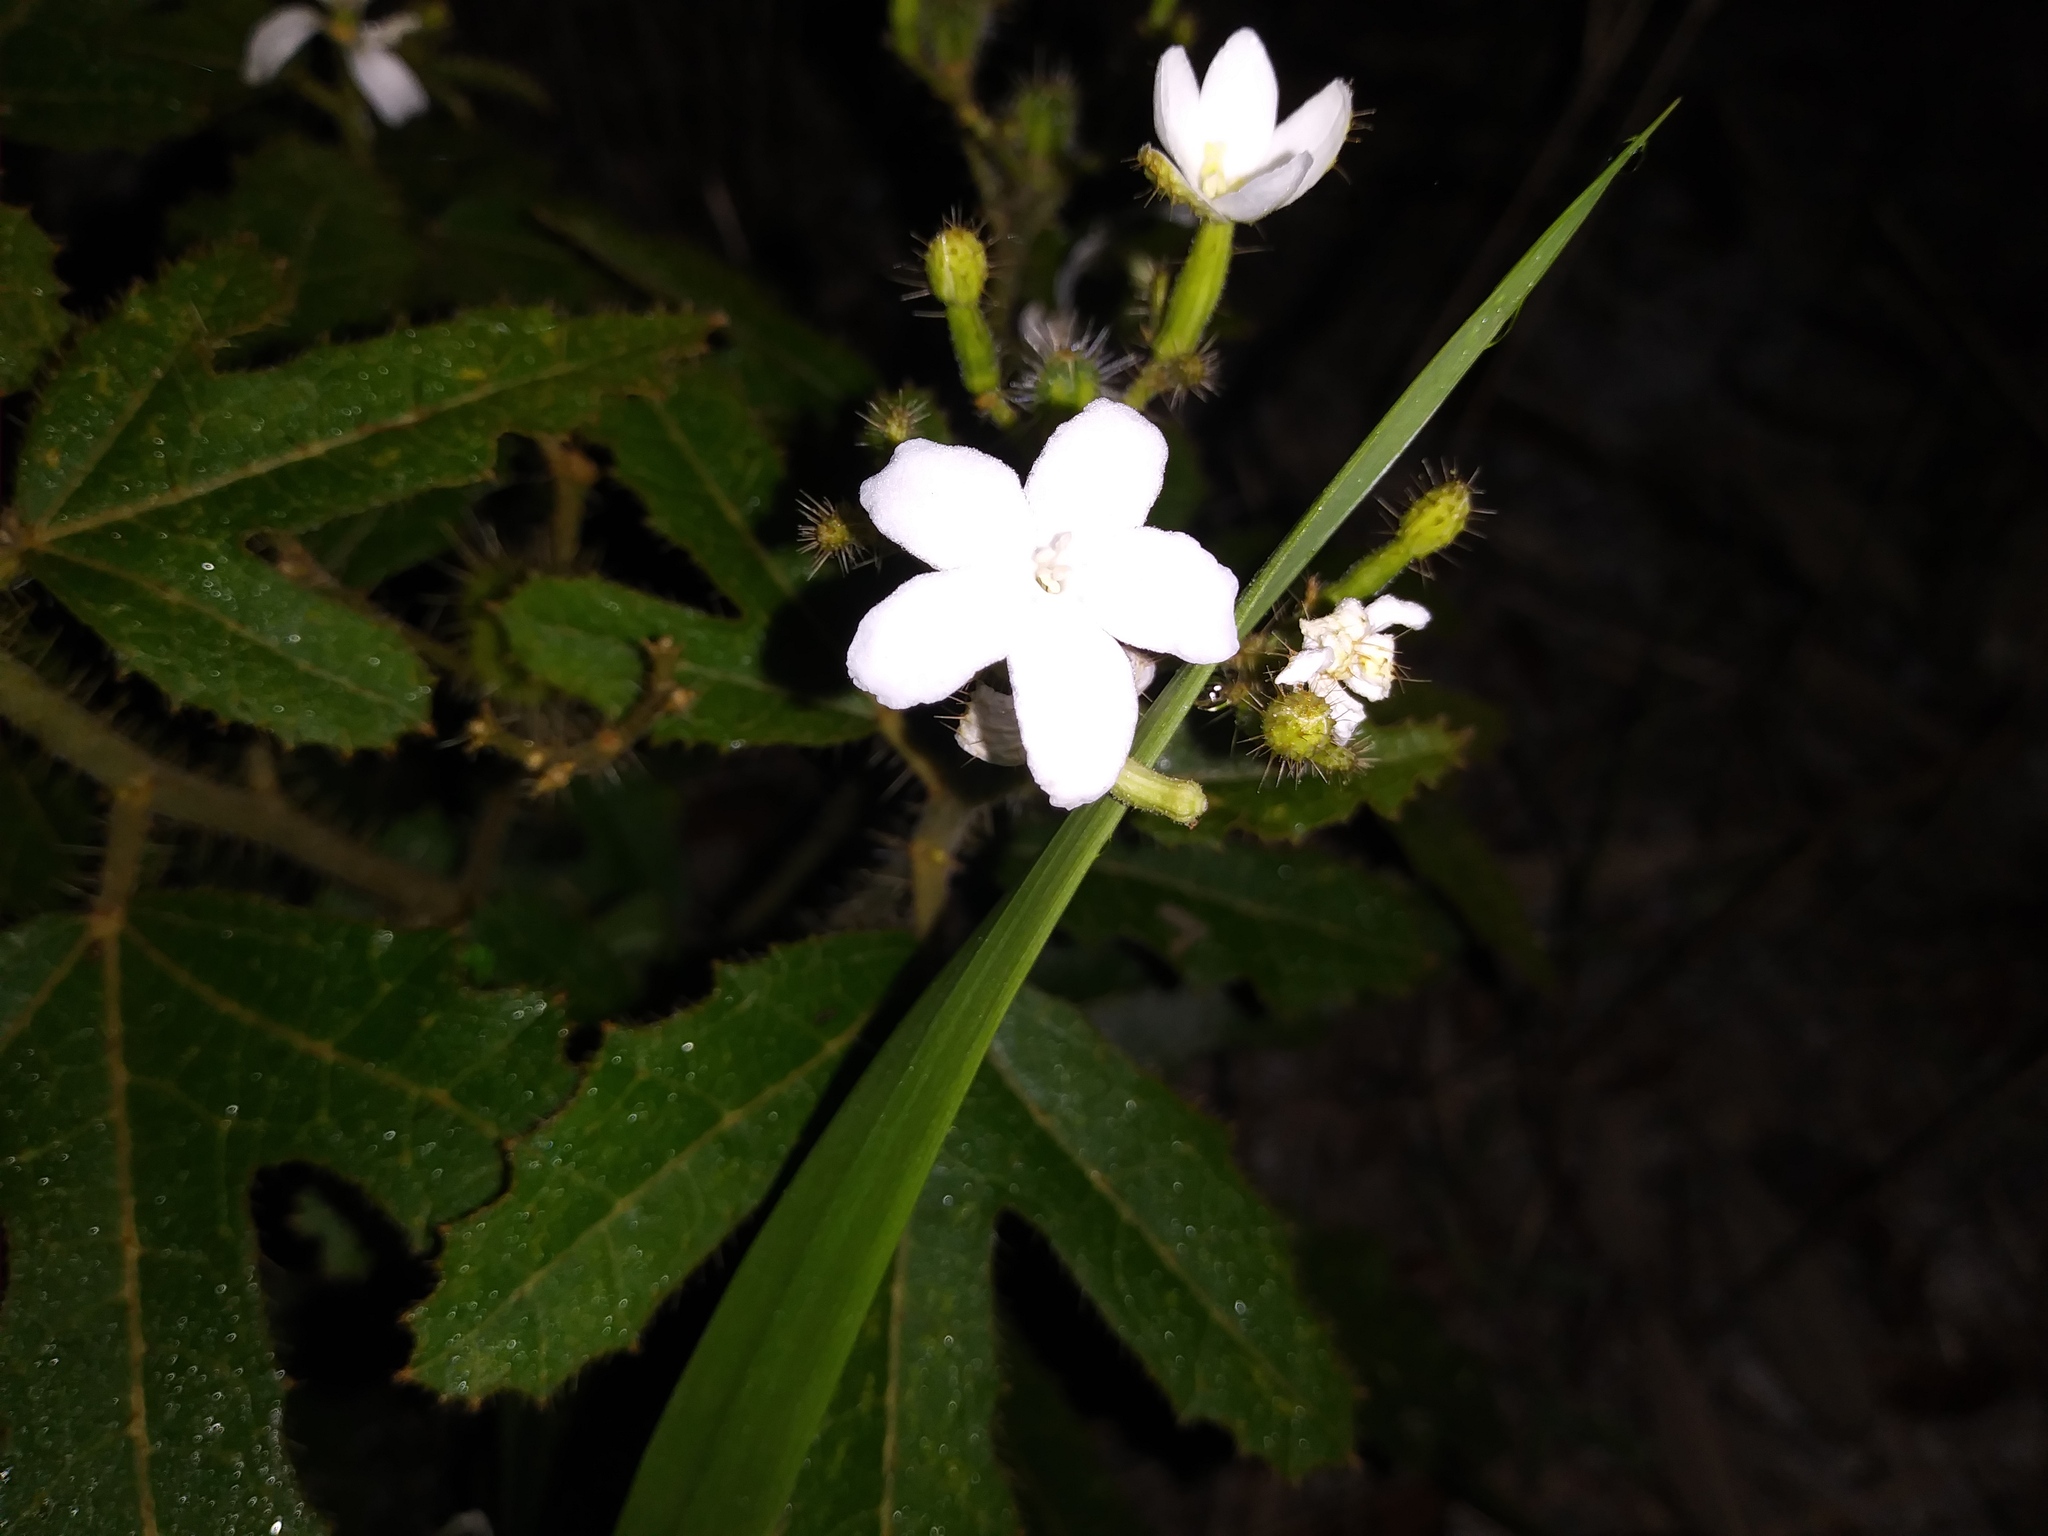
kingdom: Plantae
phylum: Tracheophyta
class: Magnoliopsida
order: Malpighiales
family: Euphorbiaceae
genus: Cnidoscolus
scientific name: Cnidoscolus stimulosus
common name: Bull-nettle
